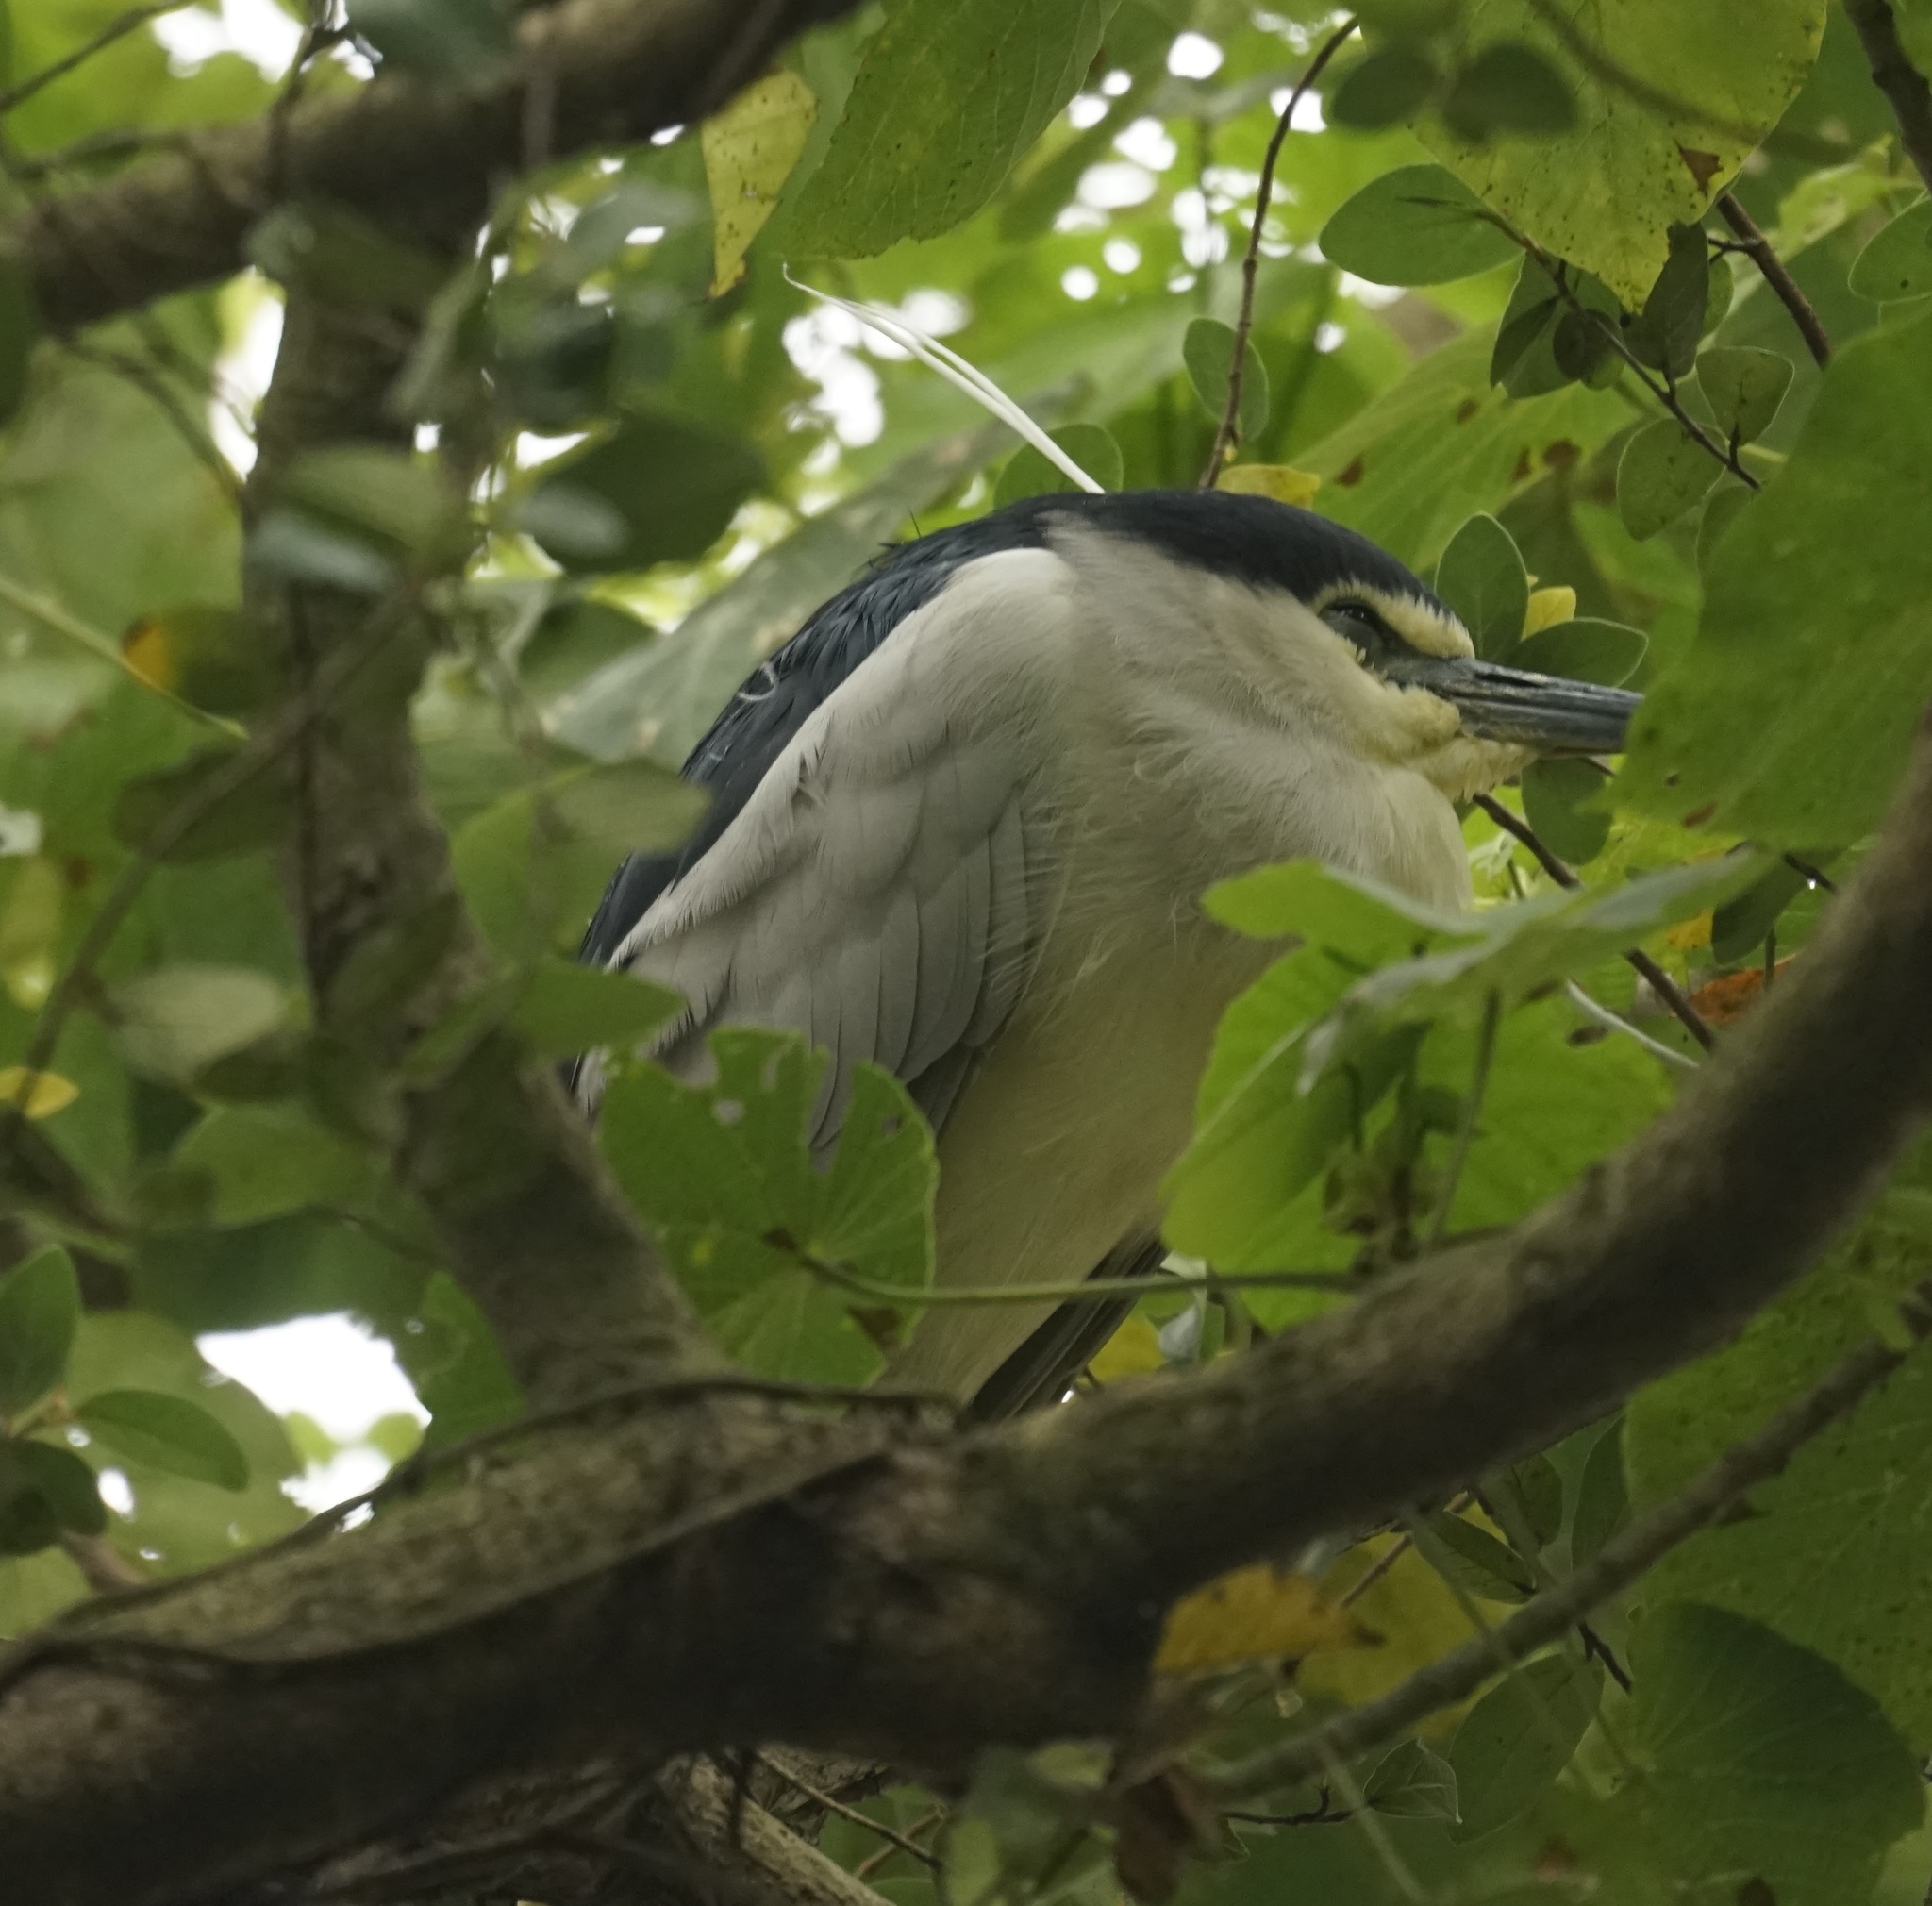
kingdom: Animalia
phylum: Chordata
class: Aves
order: Pelecaniformes
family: Ardeidae
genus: Nycticorax
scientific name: Nycticorax nycticorax
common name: Black-crowned night heron
